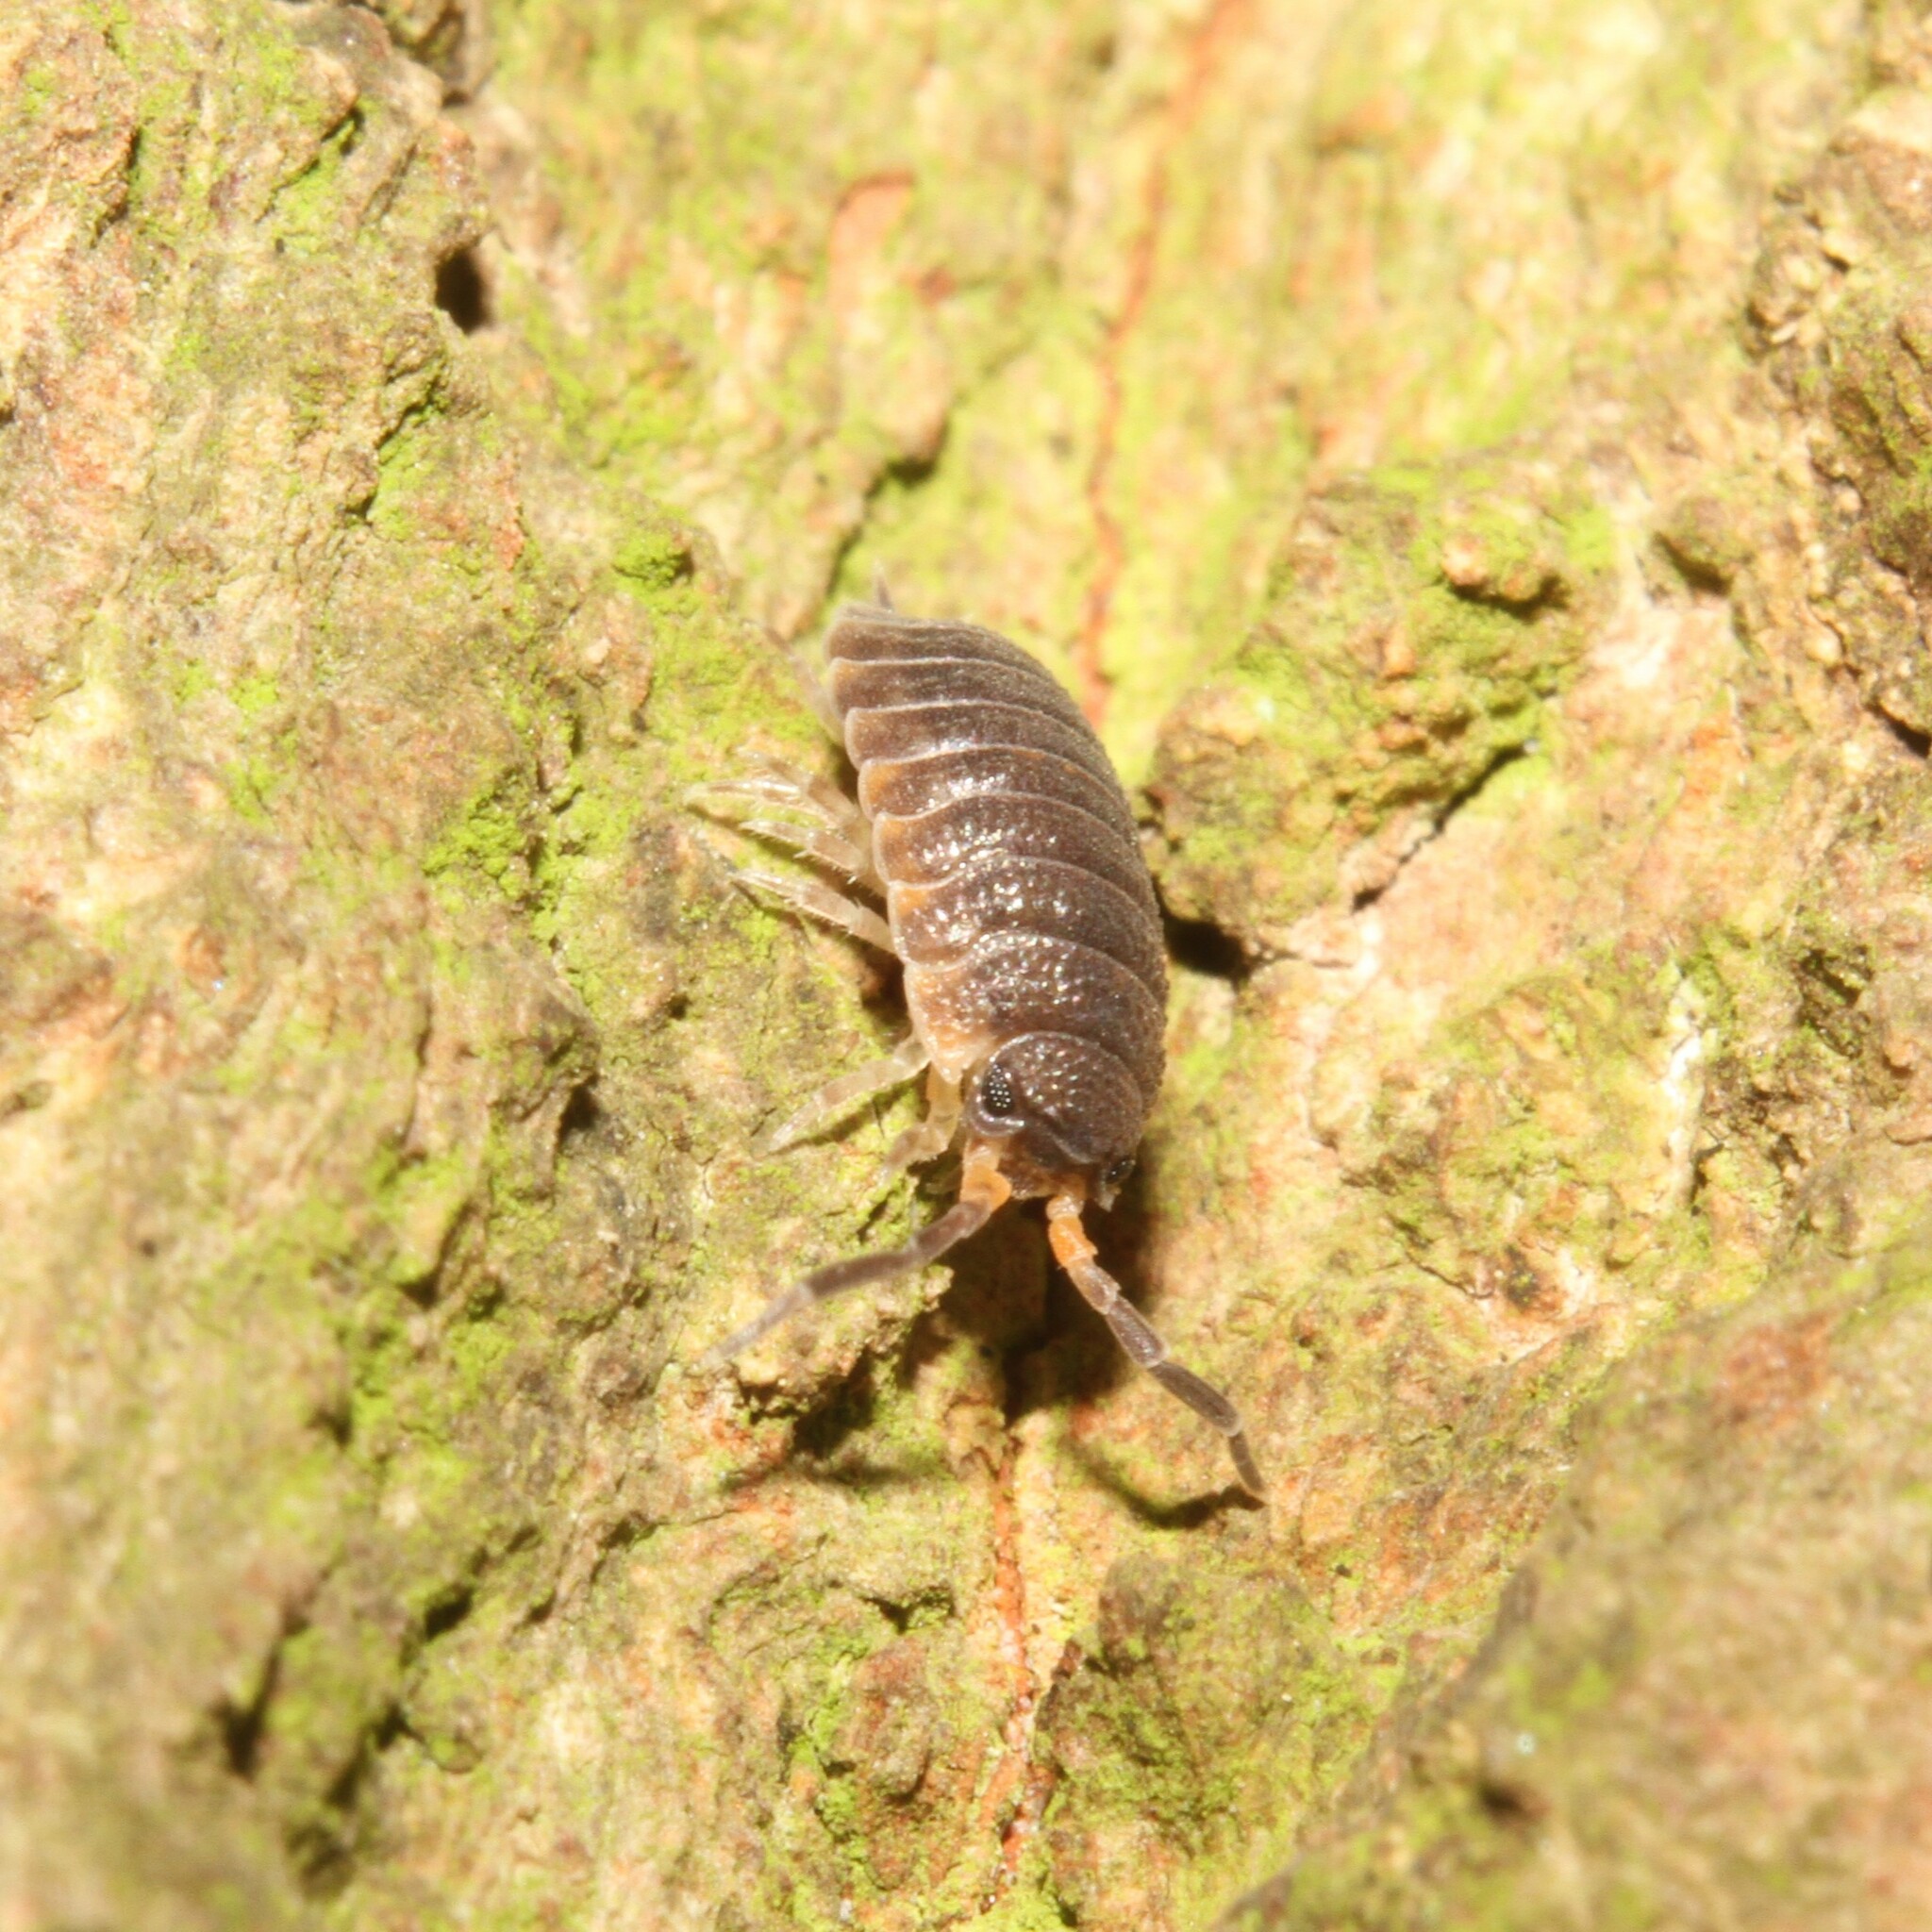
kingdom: Animalia
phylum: Arthropoda
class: Malacostraca
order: Isopoda
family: Porcellionidae
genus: Porcellio
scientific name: Porcellio scaber
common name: Common rough woodlouse
